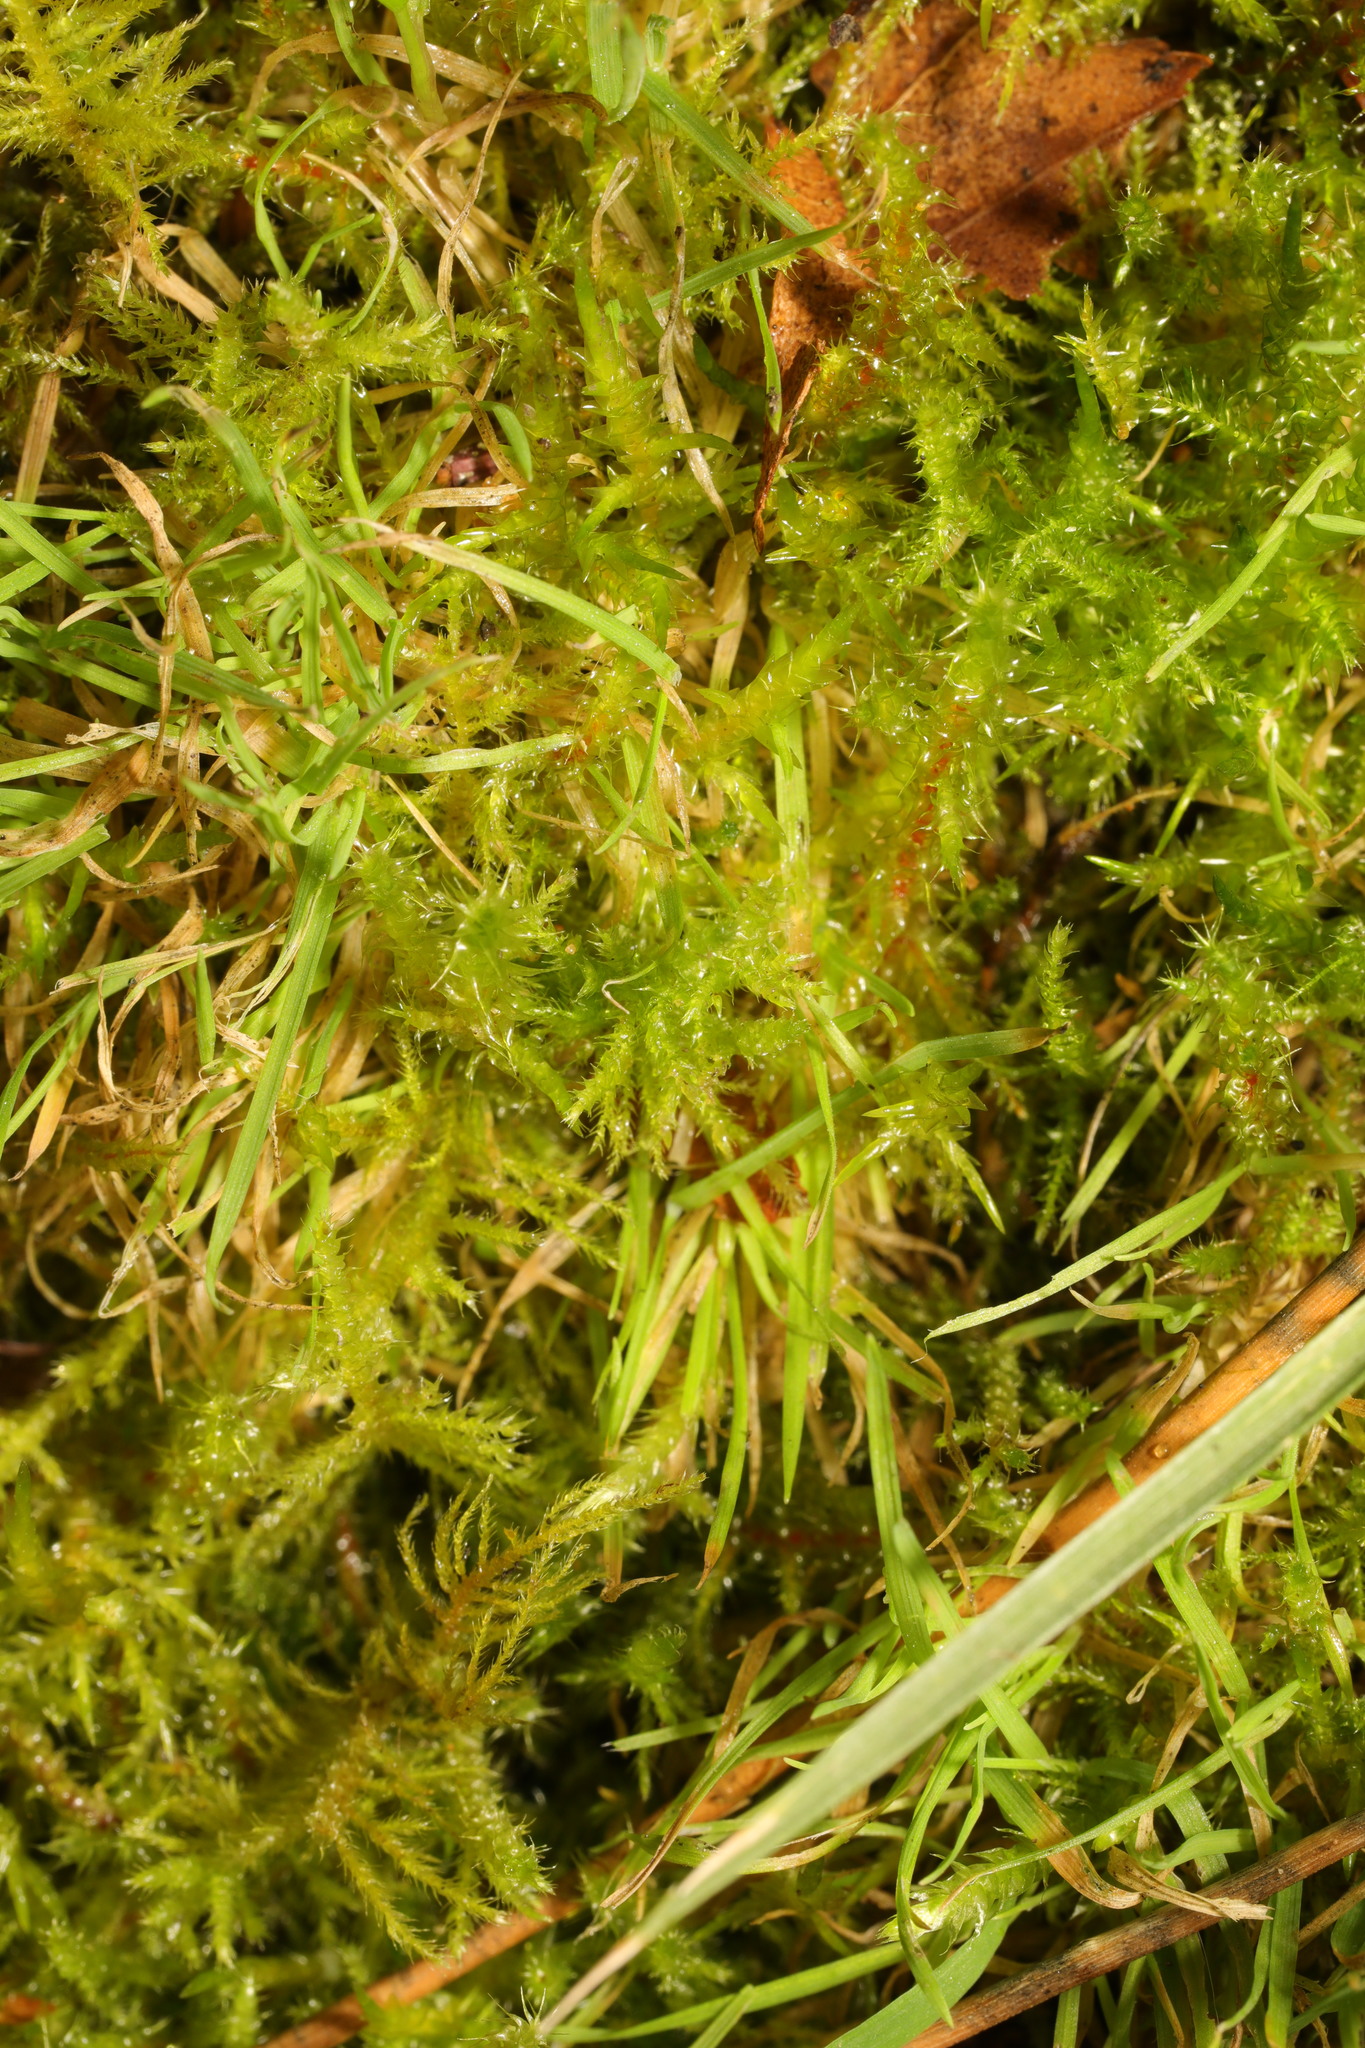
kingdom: Plantae
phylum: Bryophyta
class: Bryopsida
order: Hypnales
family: Hylocomiaceae
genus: Rhytidiadelphus
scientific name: Rhytidiadelphus squarrosus
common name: Springy turf-moss
